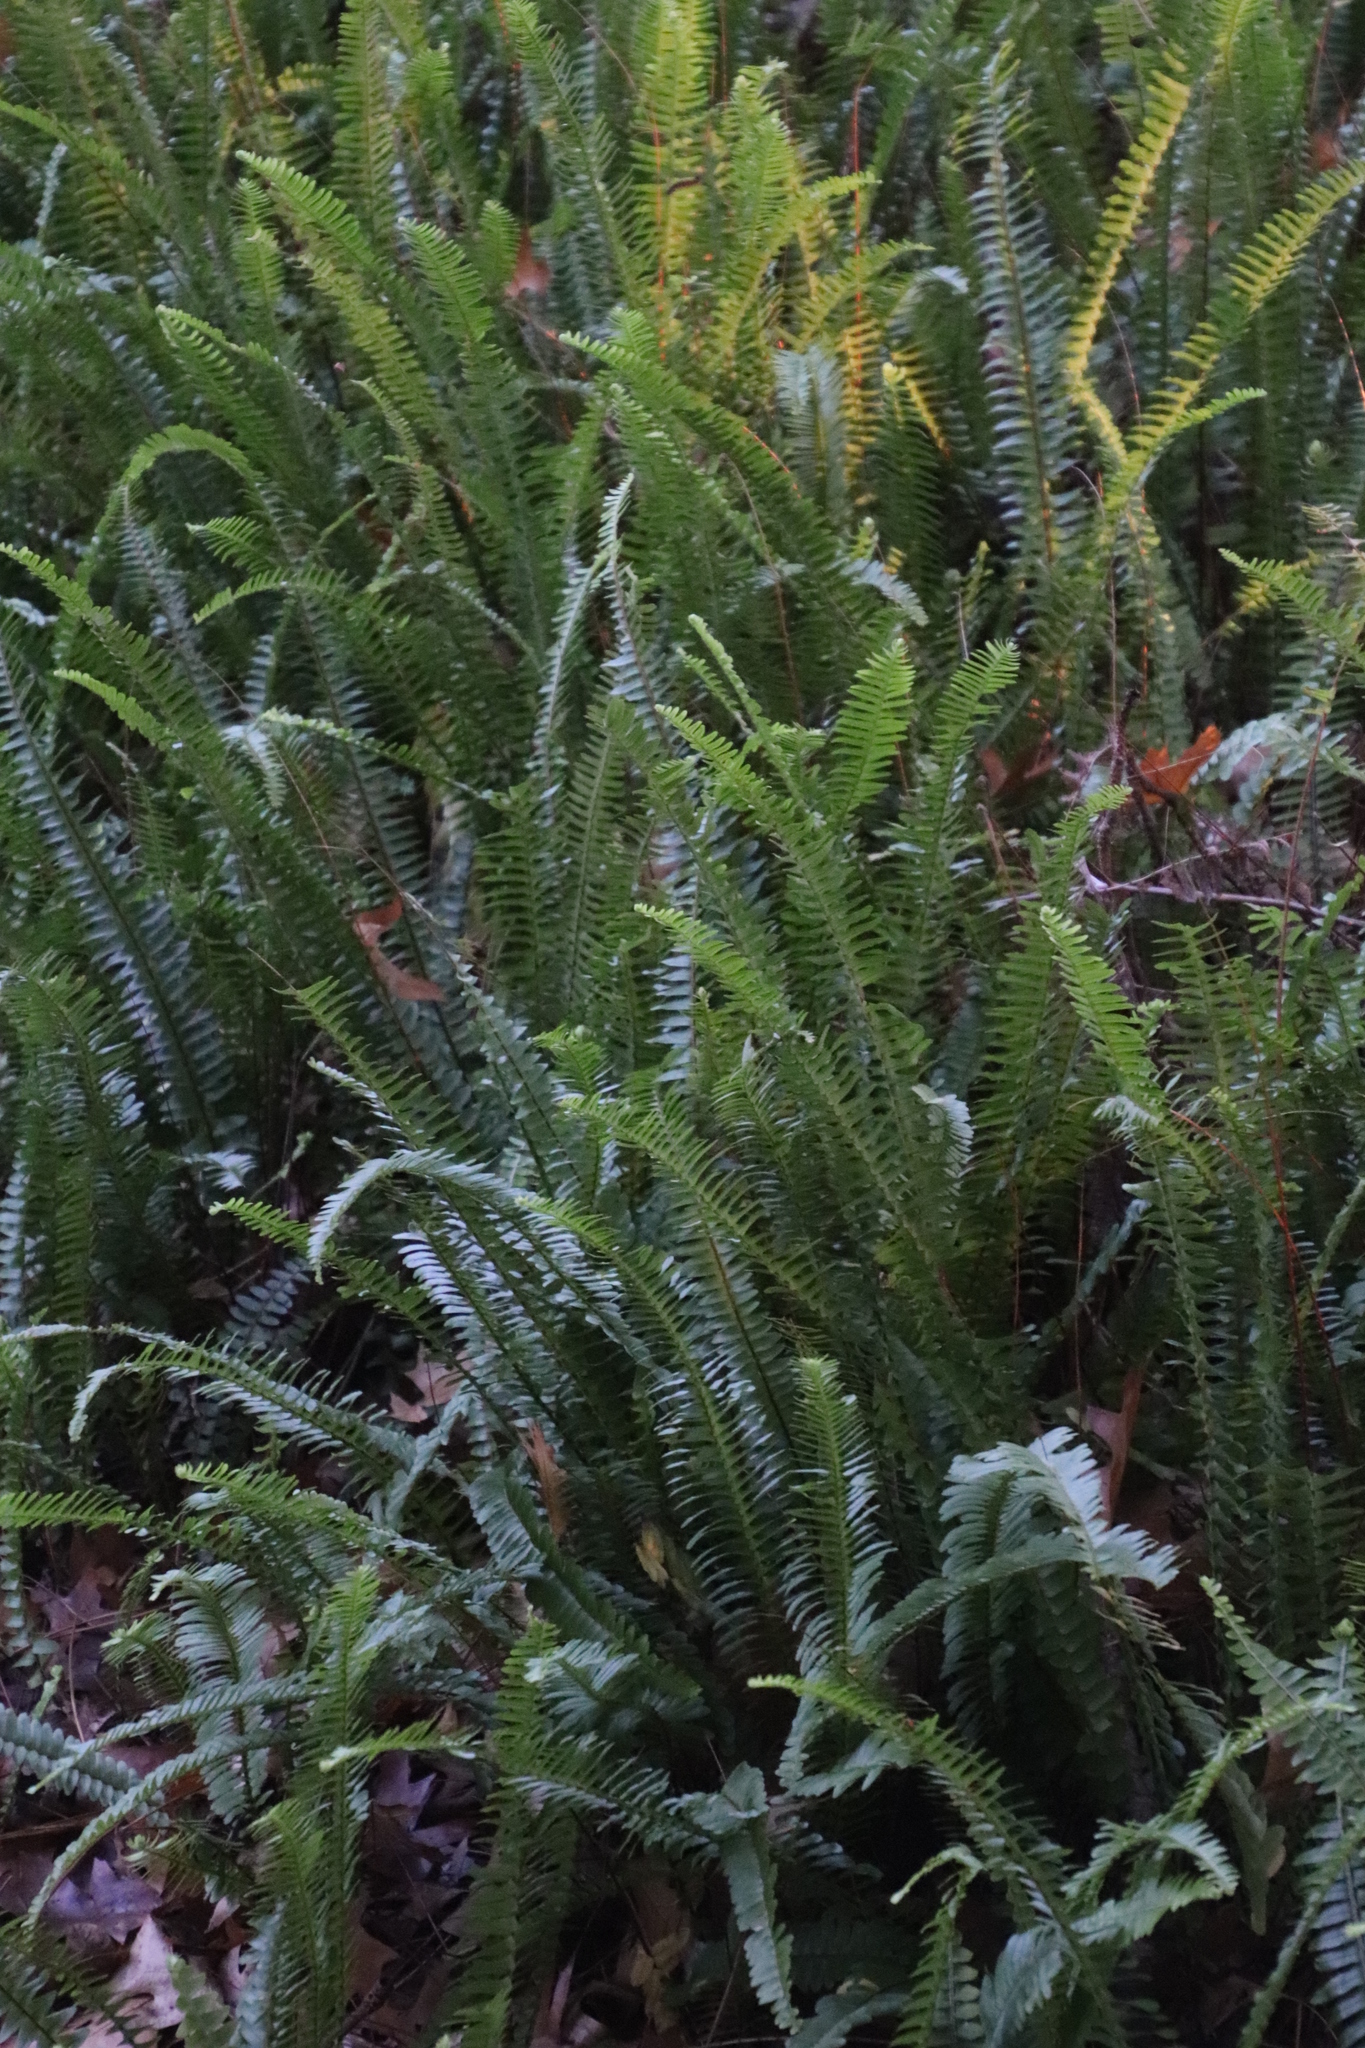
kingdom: Plantae
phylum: Tracheophyta
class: Polypodiopsida
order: Polypodiales
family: Nephrolepidaceae
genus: Nephrolepis
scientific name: Nephrolepis cordifolia
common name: Narrow swordfern
